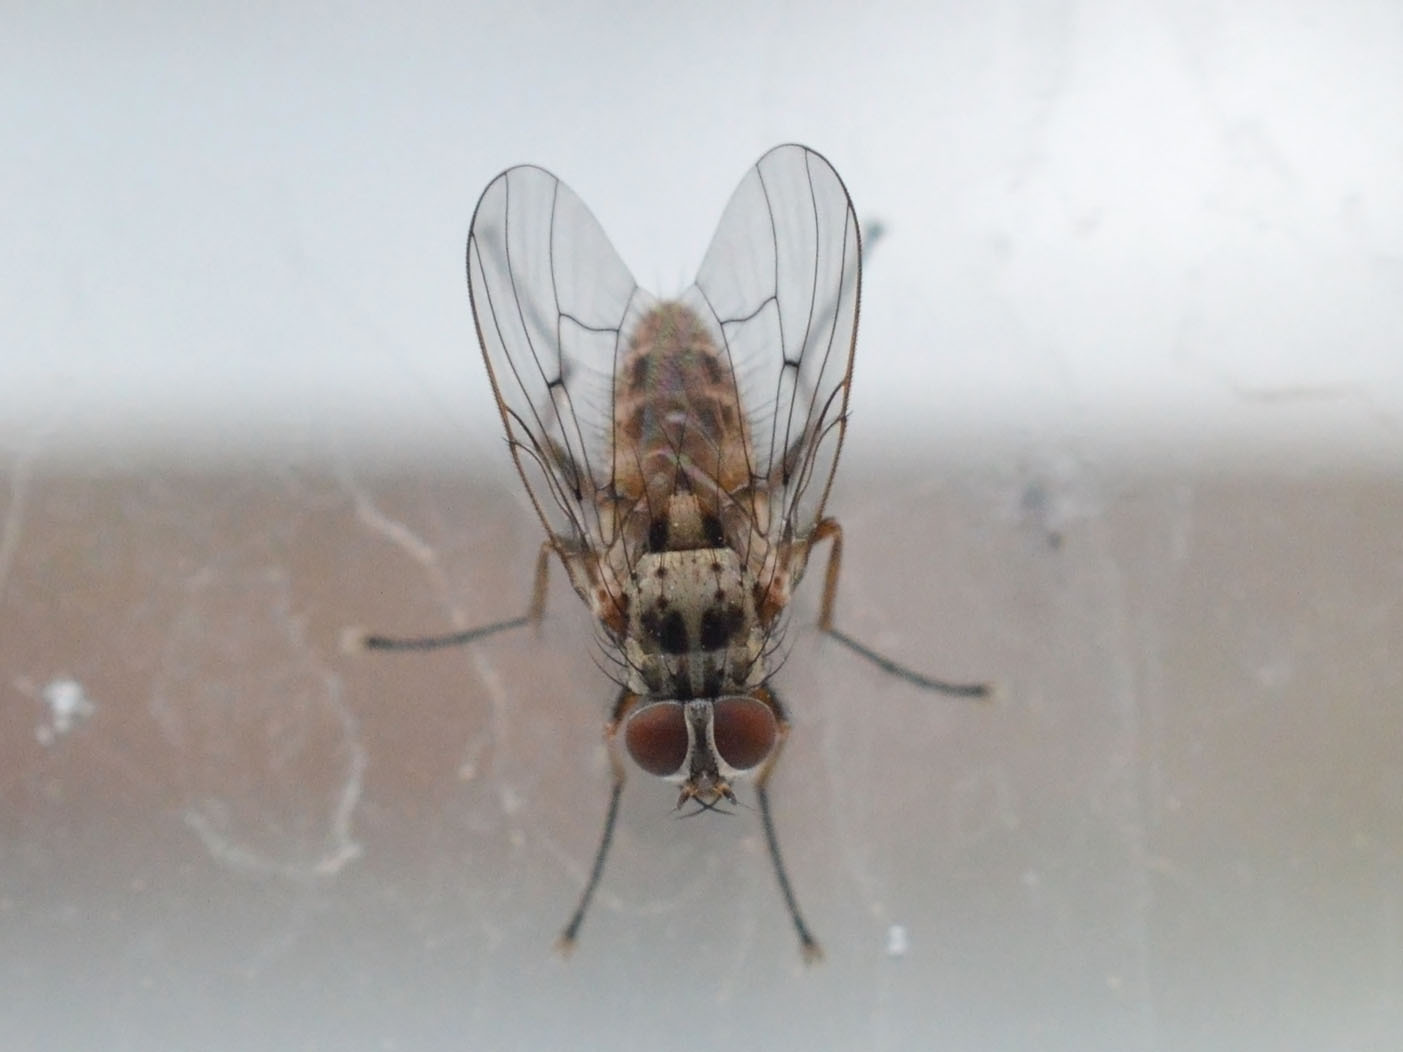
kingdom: Animalia
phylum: Arthropoda
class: Insecta
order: Diptera
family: Muscidae
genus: Helina
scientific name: Helina sexmaculata
